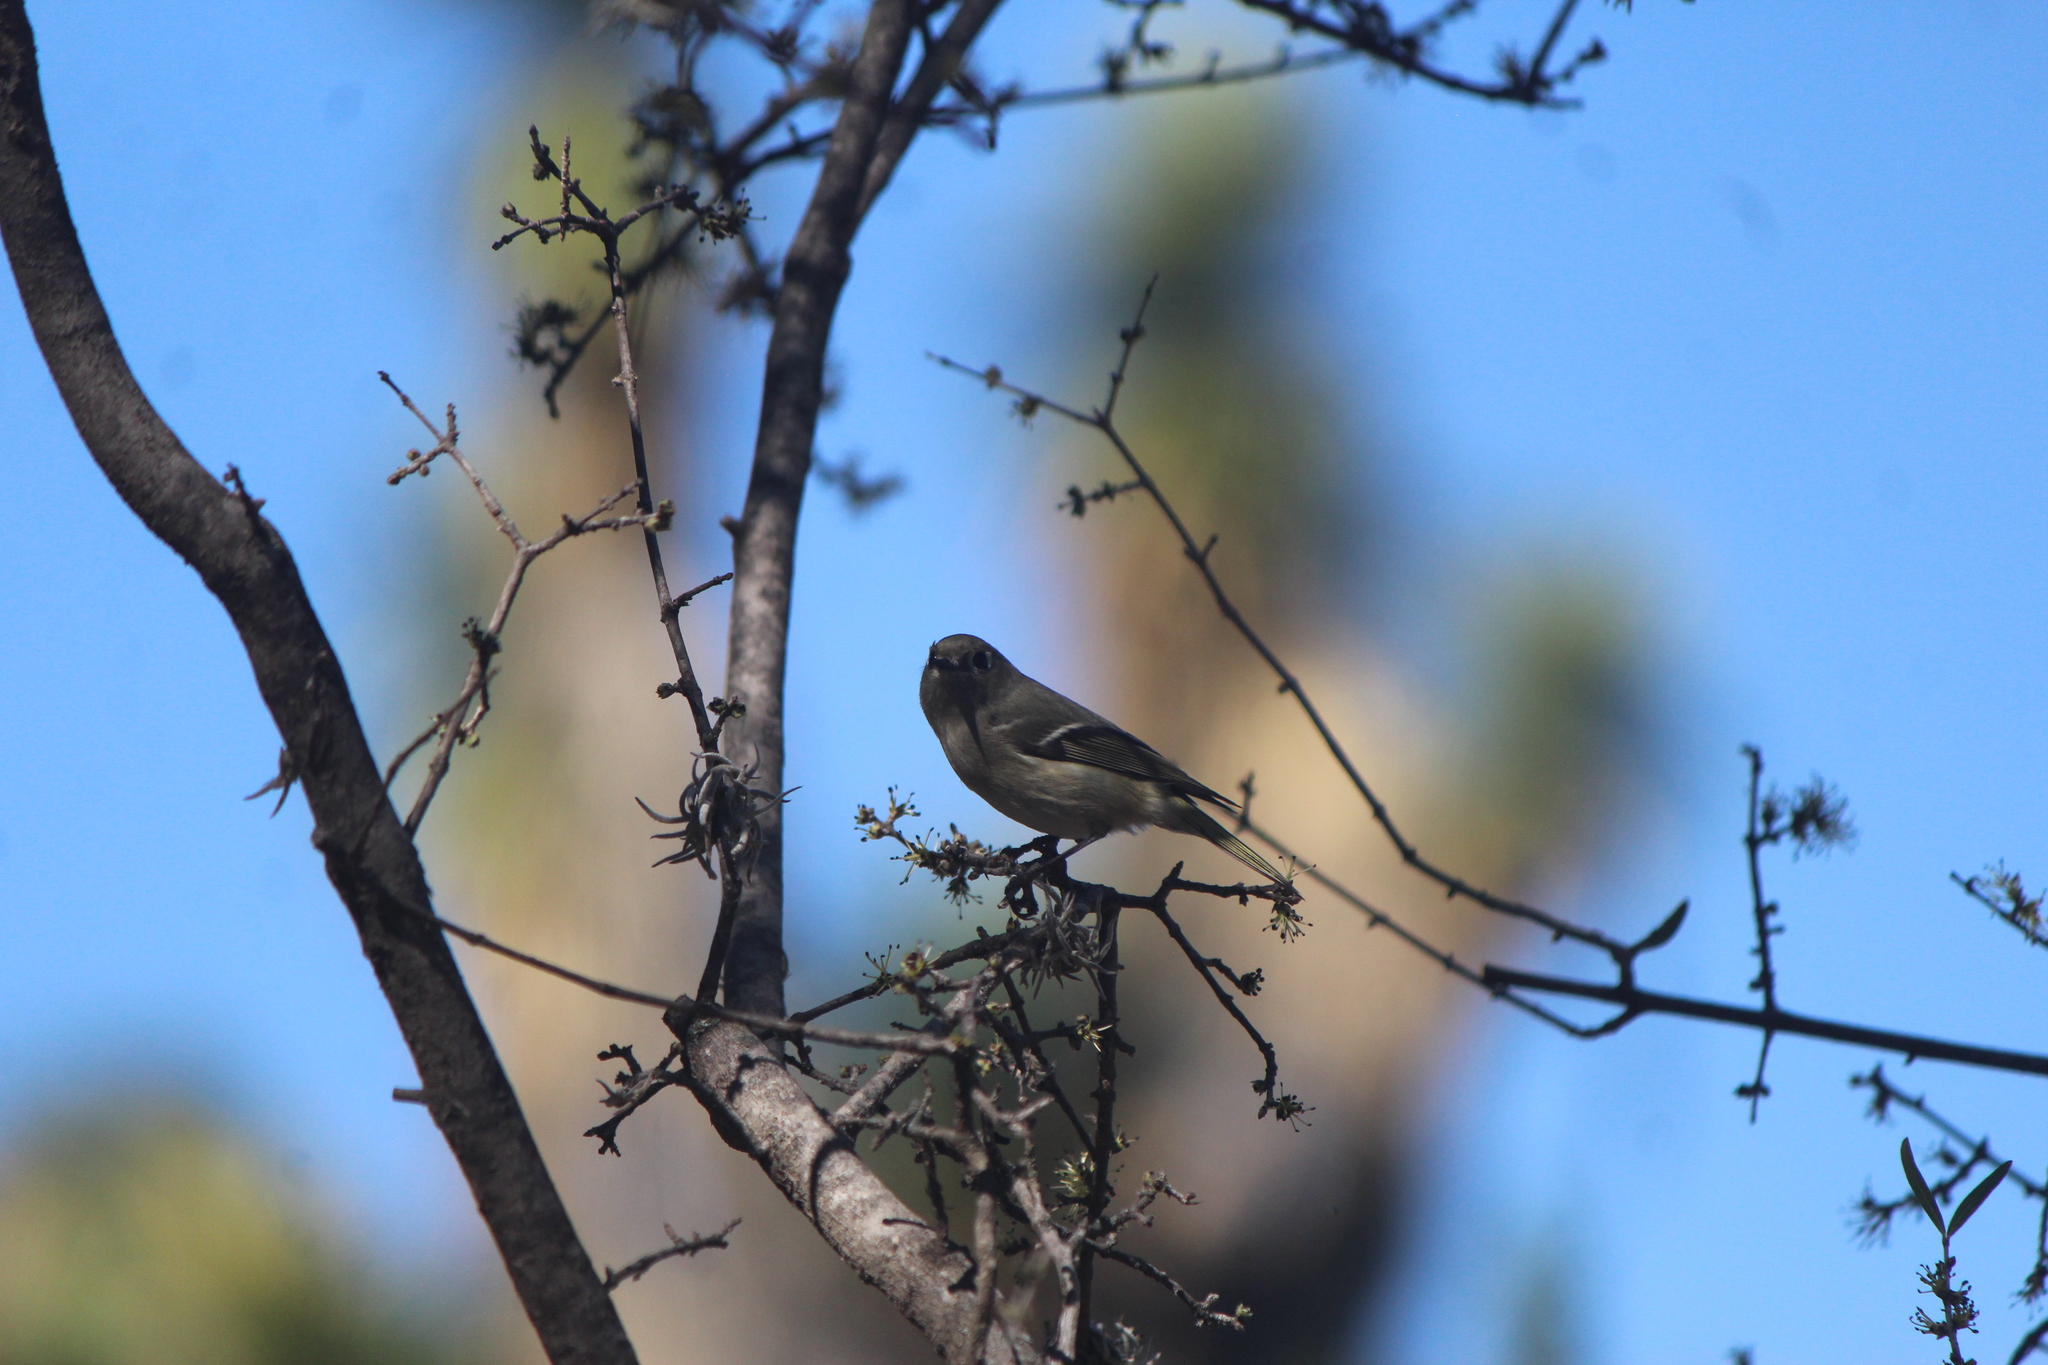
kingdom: Animalia
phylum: Chordata
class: Aves
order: Passeriformes
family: Regulidae
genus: Regulus
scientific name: Regulus calendula
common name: Ruby-crowned kinglet
